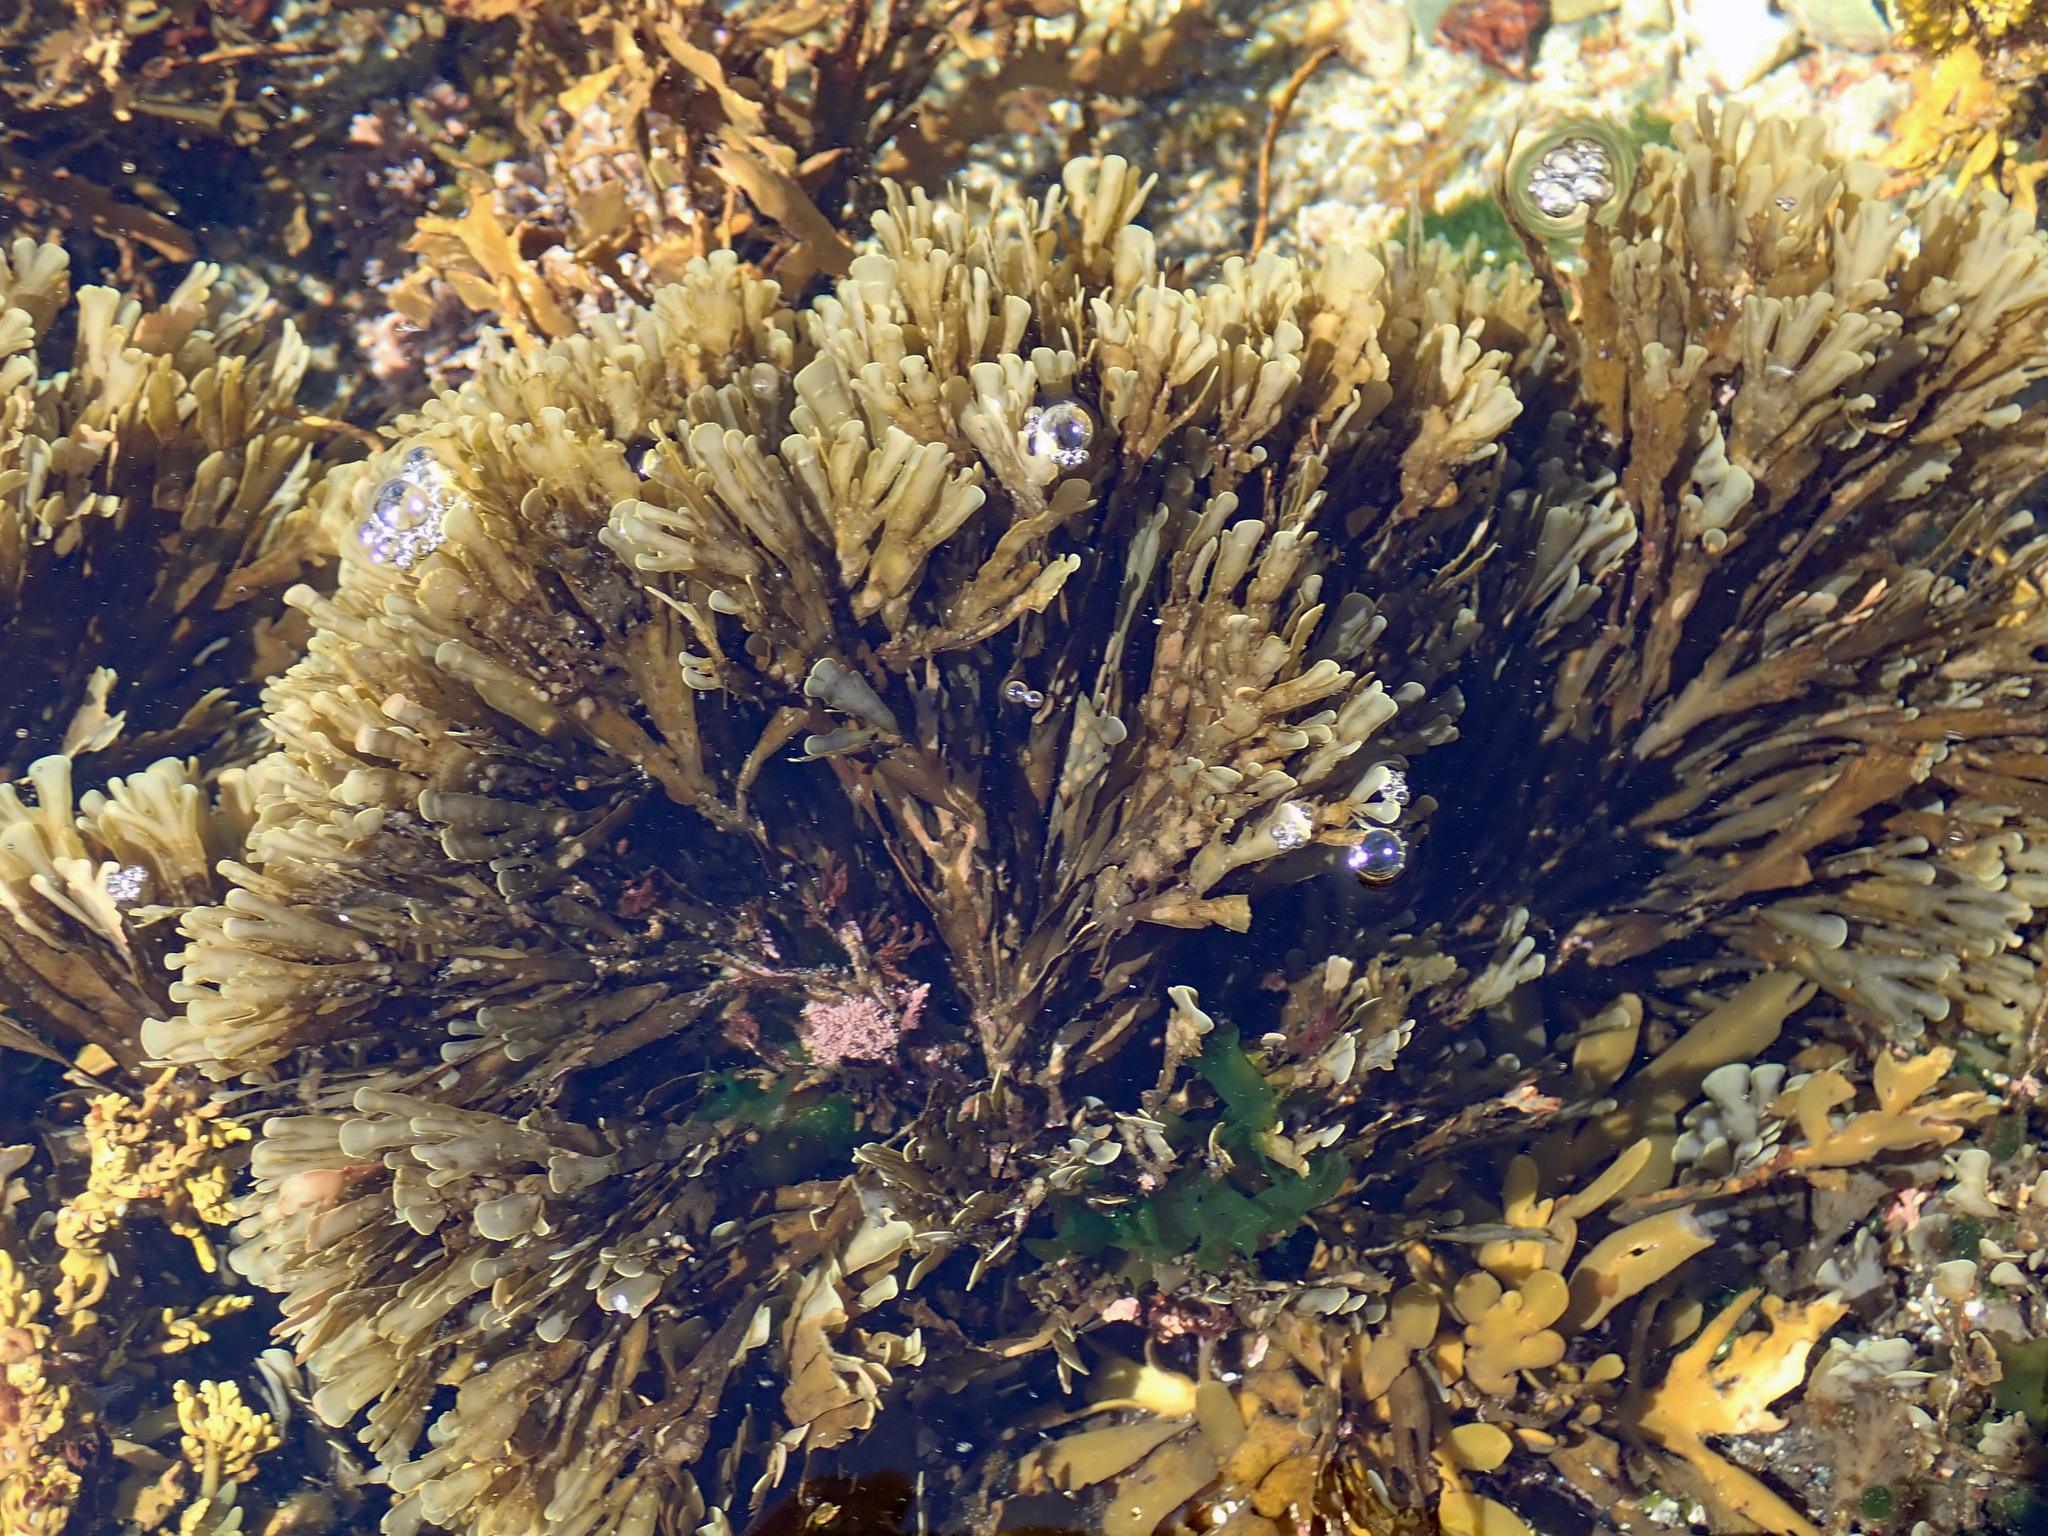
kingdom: Chromista
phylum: Ochrophyta
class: Phaeophyceae
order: Dictyotales
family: Dictyotaceae
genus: Zonaria
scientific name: Zonaria turneriana
